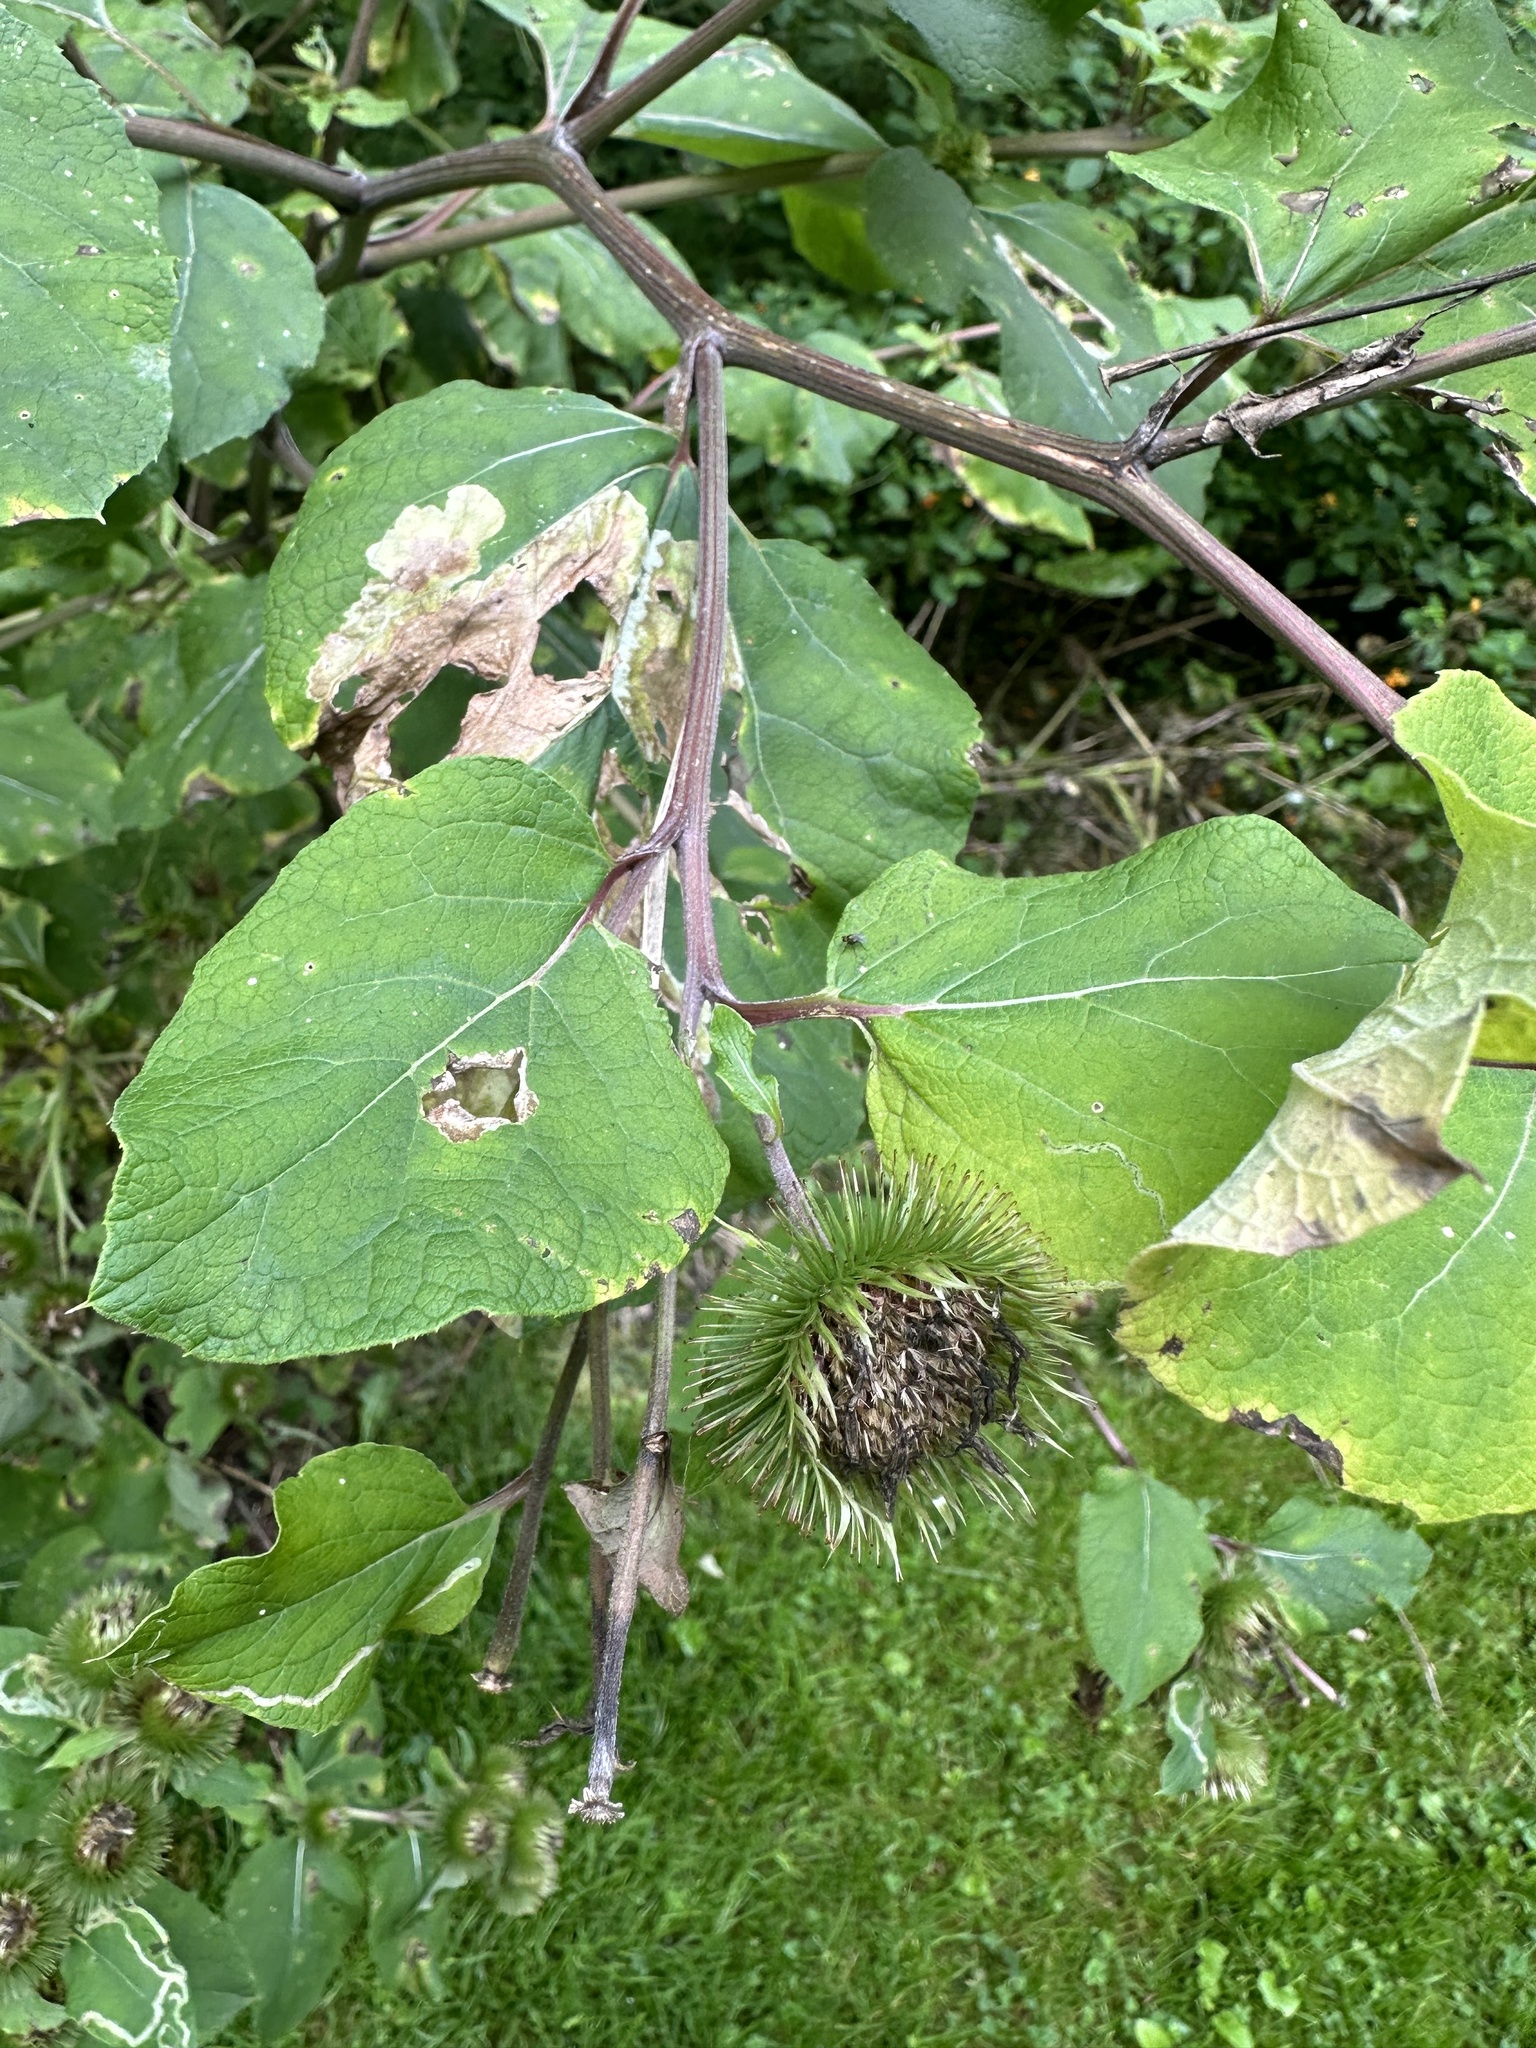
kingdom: Plantae
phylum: Tracheophyta
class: Magnoliopsida
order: Asterales
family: Asteraceae
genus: Arctium
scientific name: Arctium lappa
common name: Greater burdock
